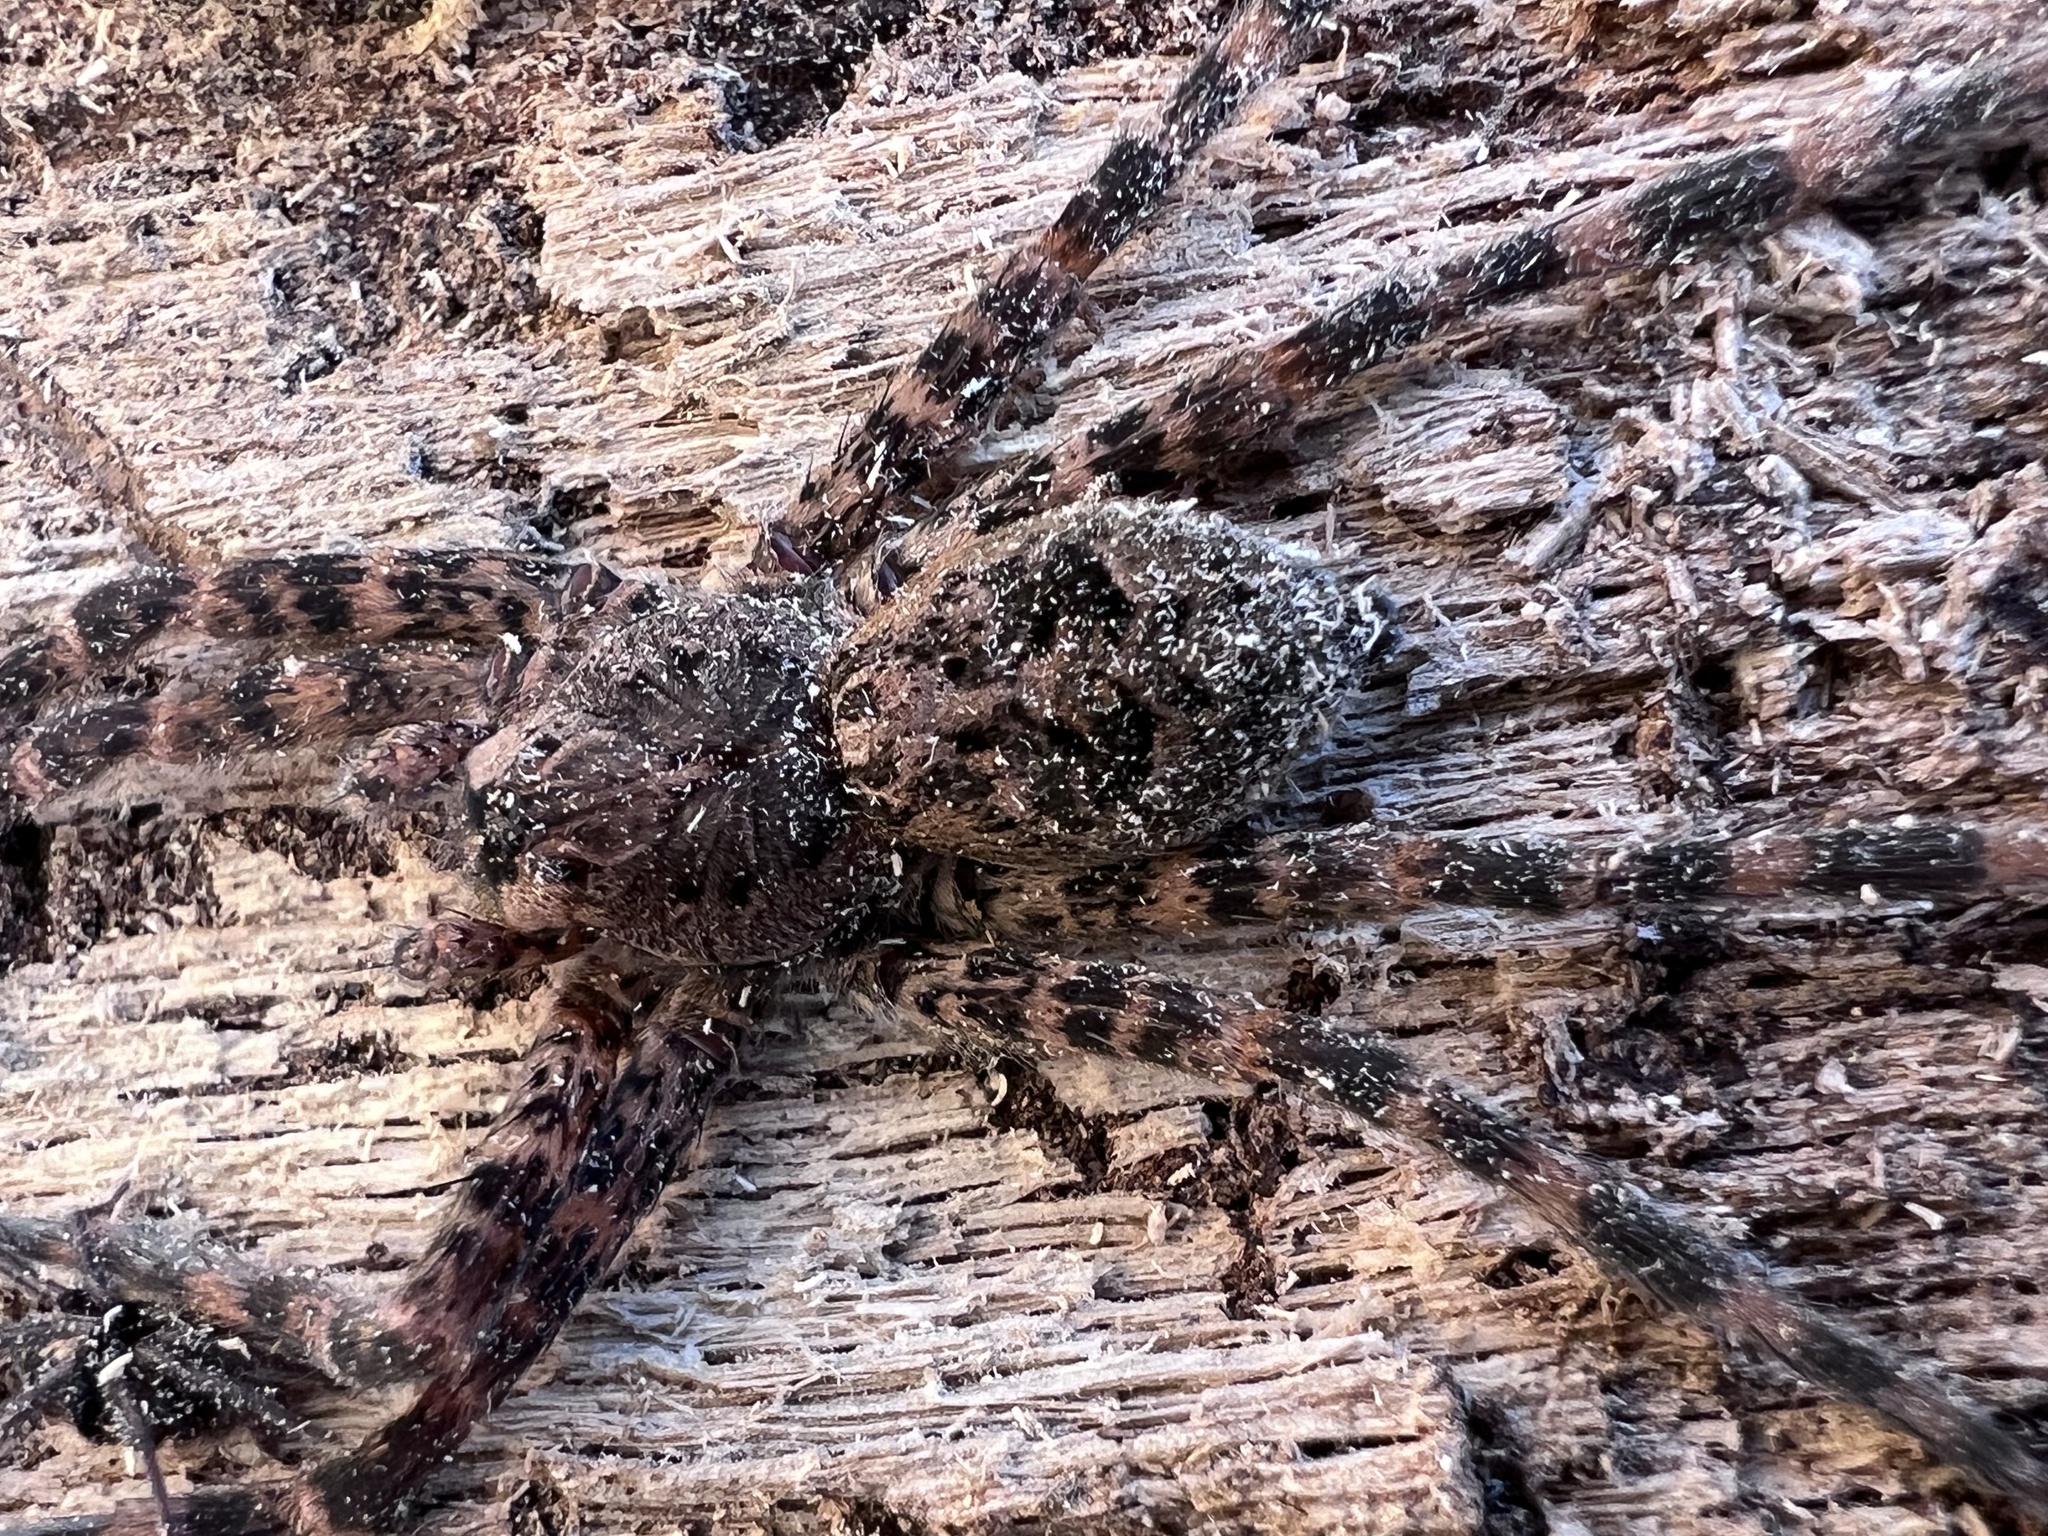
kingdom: Animalia
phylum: Arthropoda
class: Arachnida
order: Araneae
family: Pisauridae
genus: Dolomedes
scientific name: Dolomedes tenebrosus
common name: Dark fishing spider
